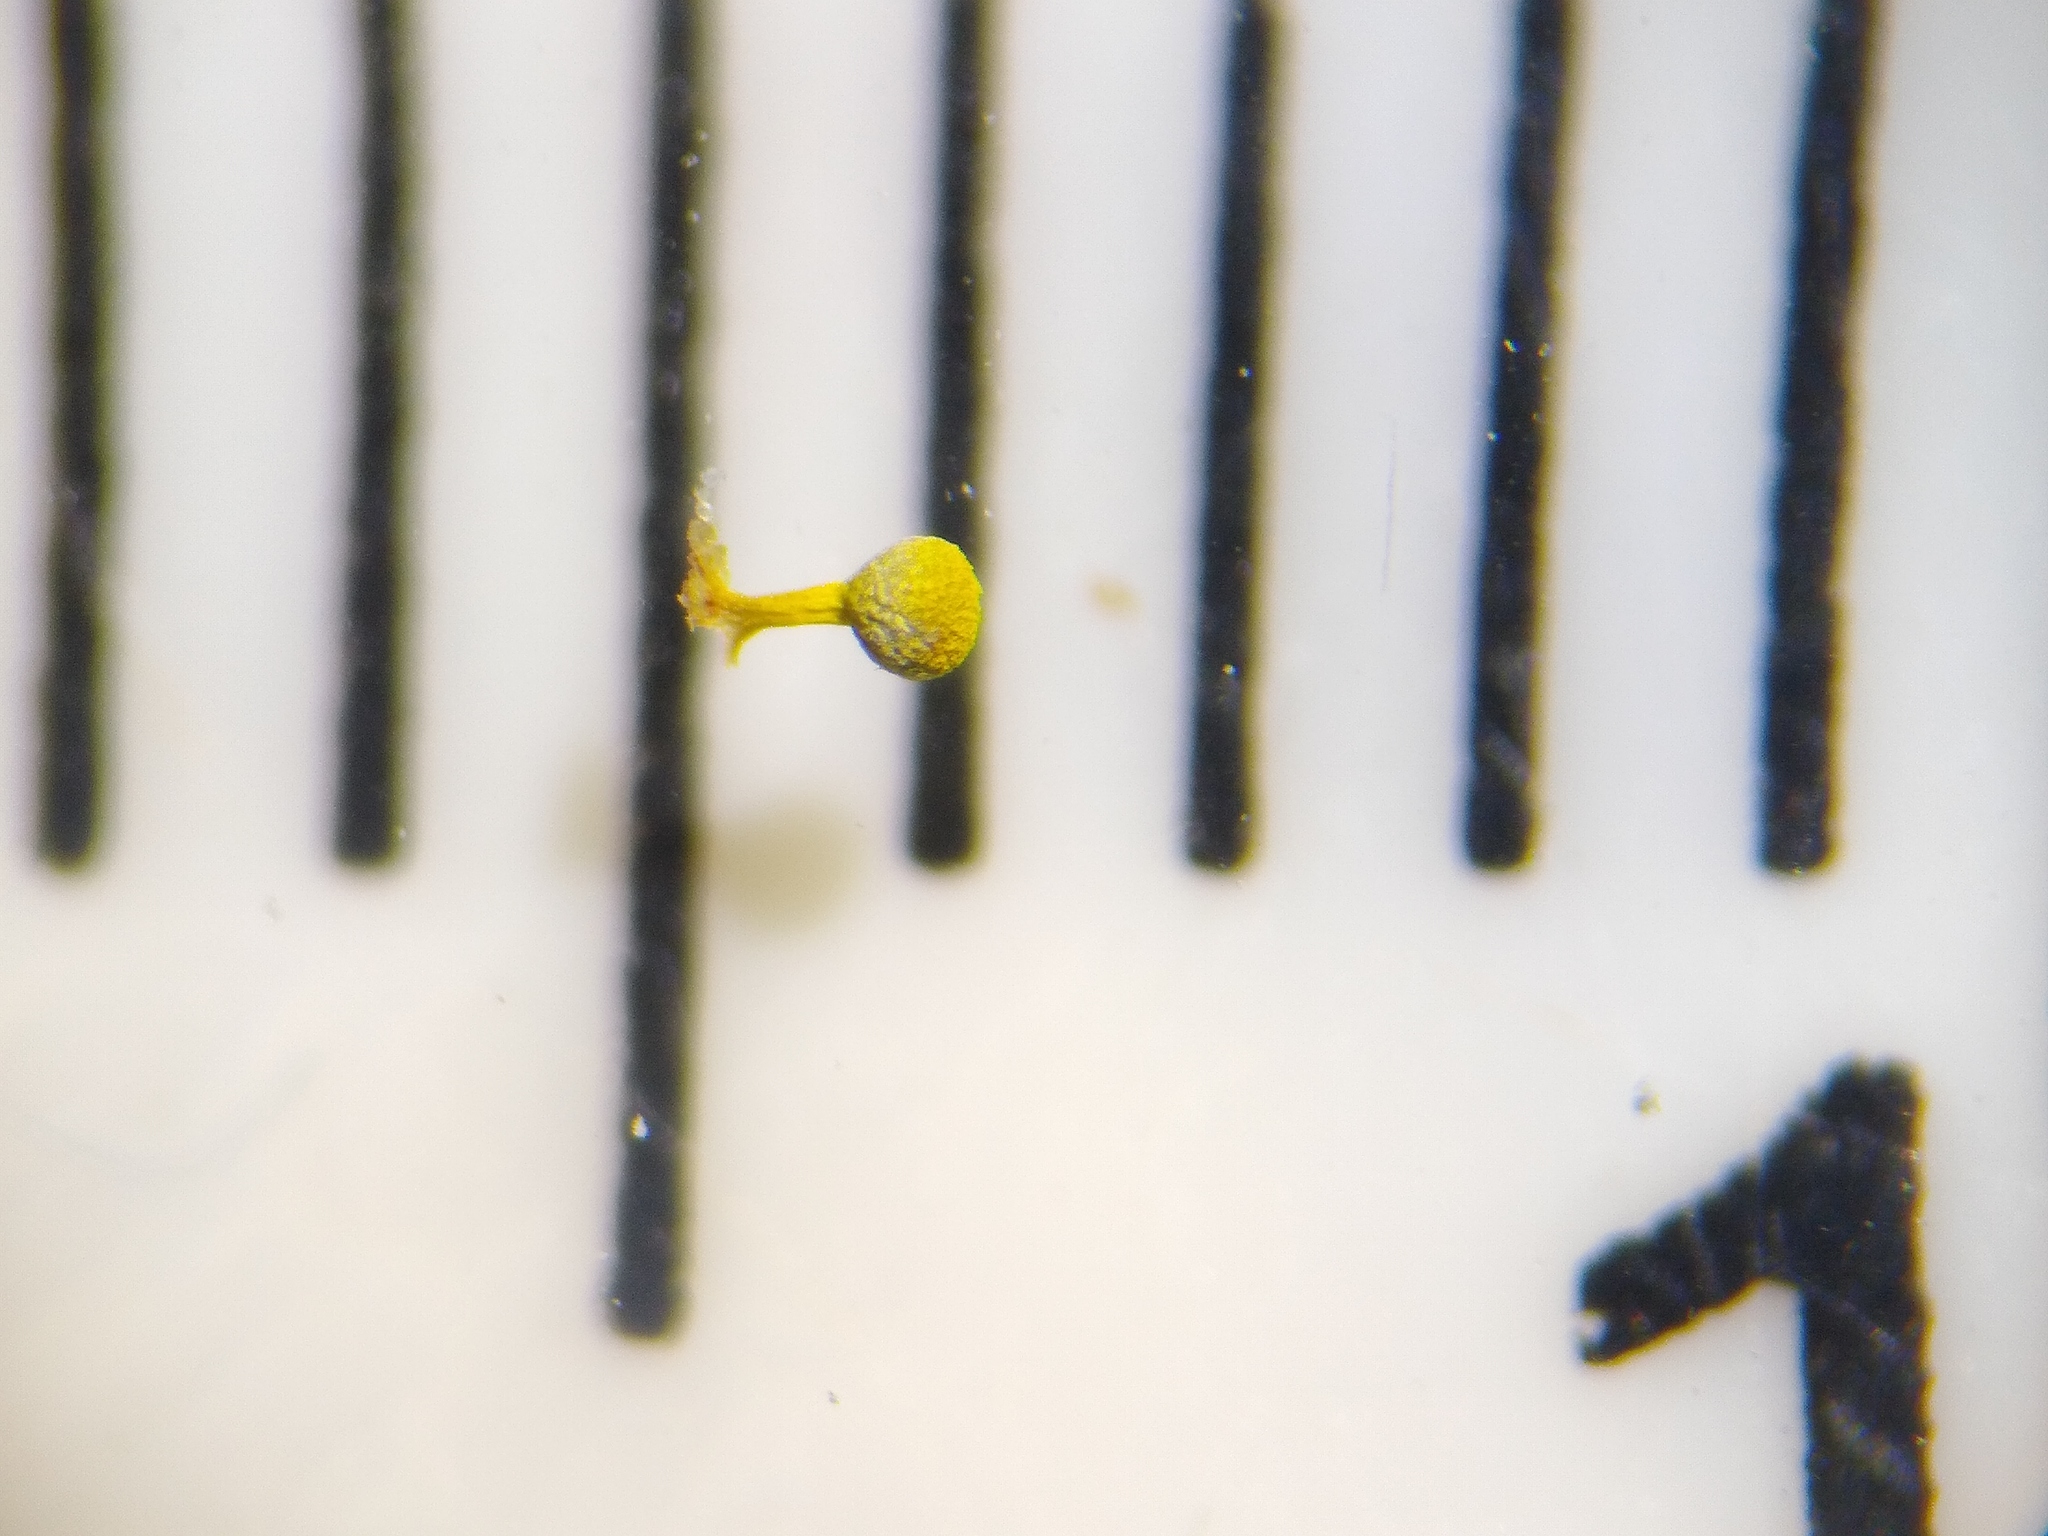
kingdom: Protozoa
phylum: Mycetozoa
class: Myxomycetes
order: Physarales
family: Physaraceae
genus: Craterium
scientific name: Craterium aureum
